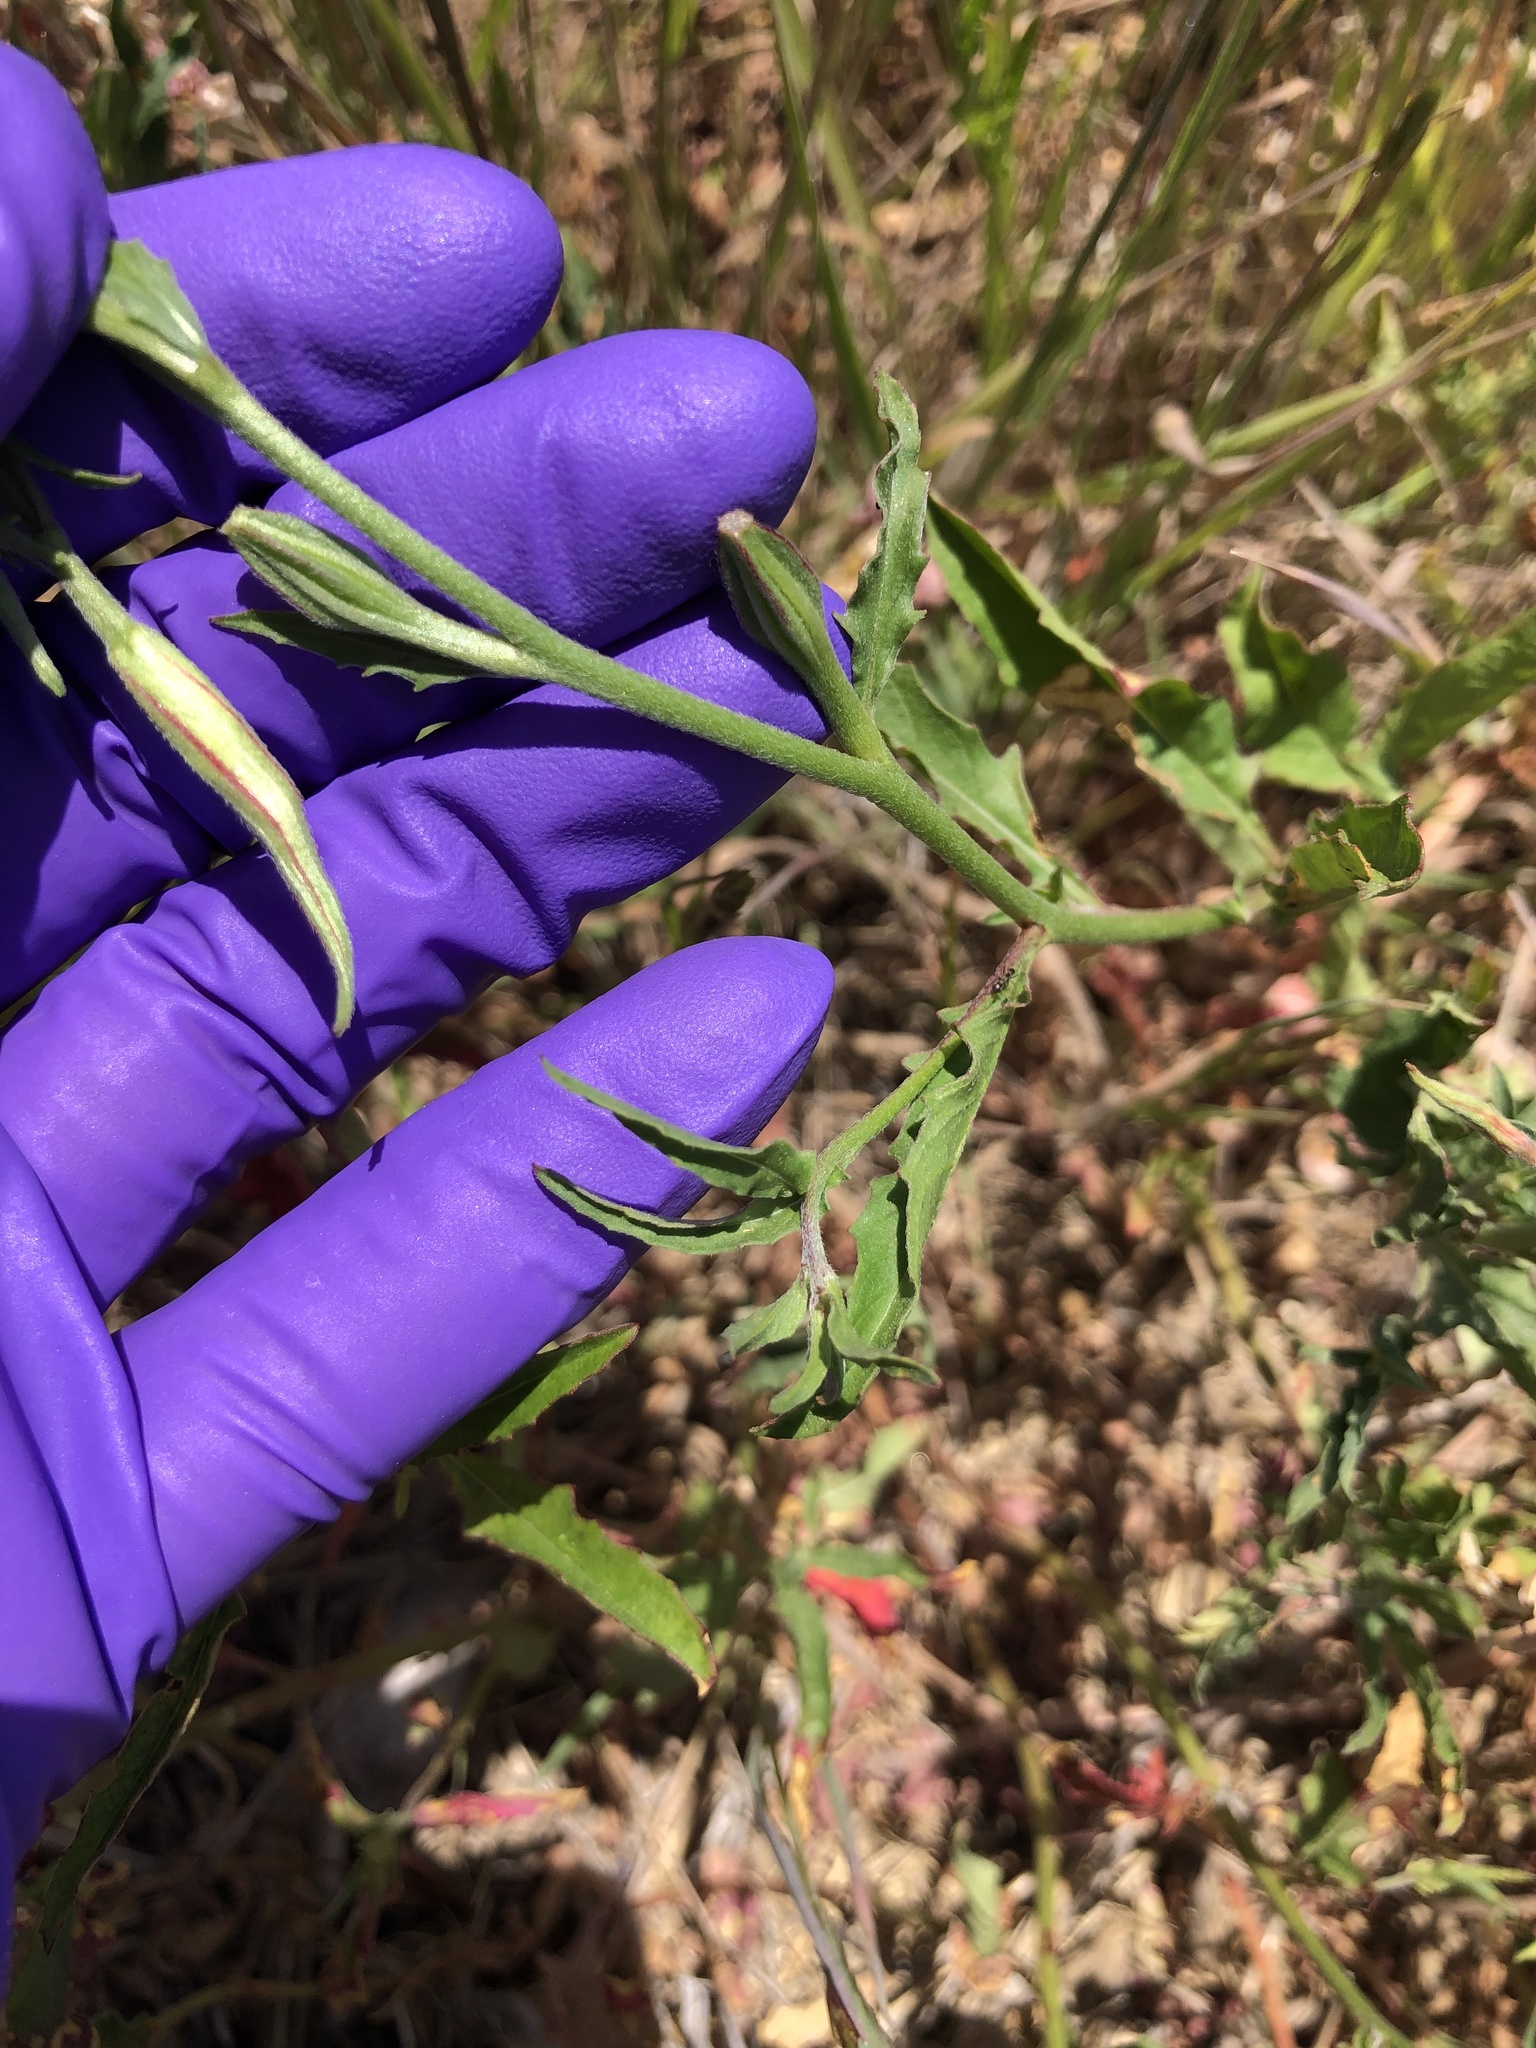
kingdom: Plantae
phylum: Tracheophyta
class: Magnoliopsida
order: Myrtales
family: Onagraceae
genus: Oenothera
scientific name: Oenothera speciosa
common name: White evening-primrose
